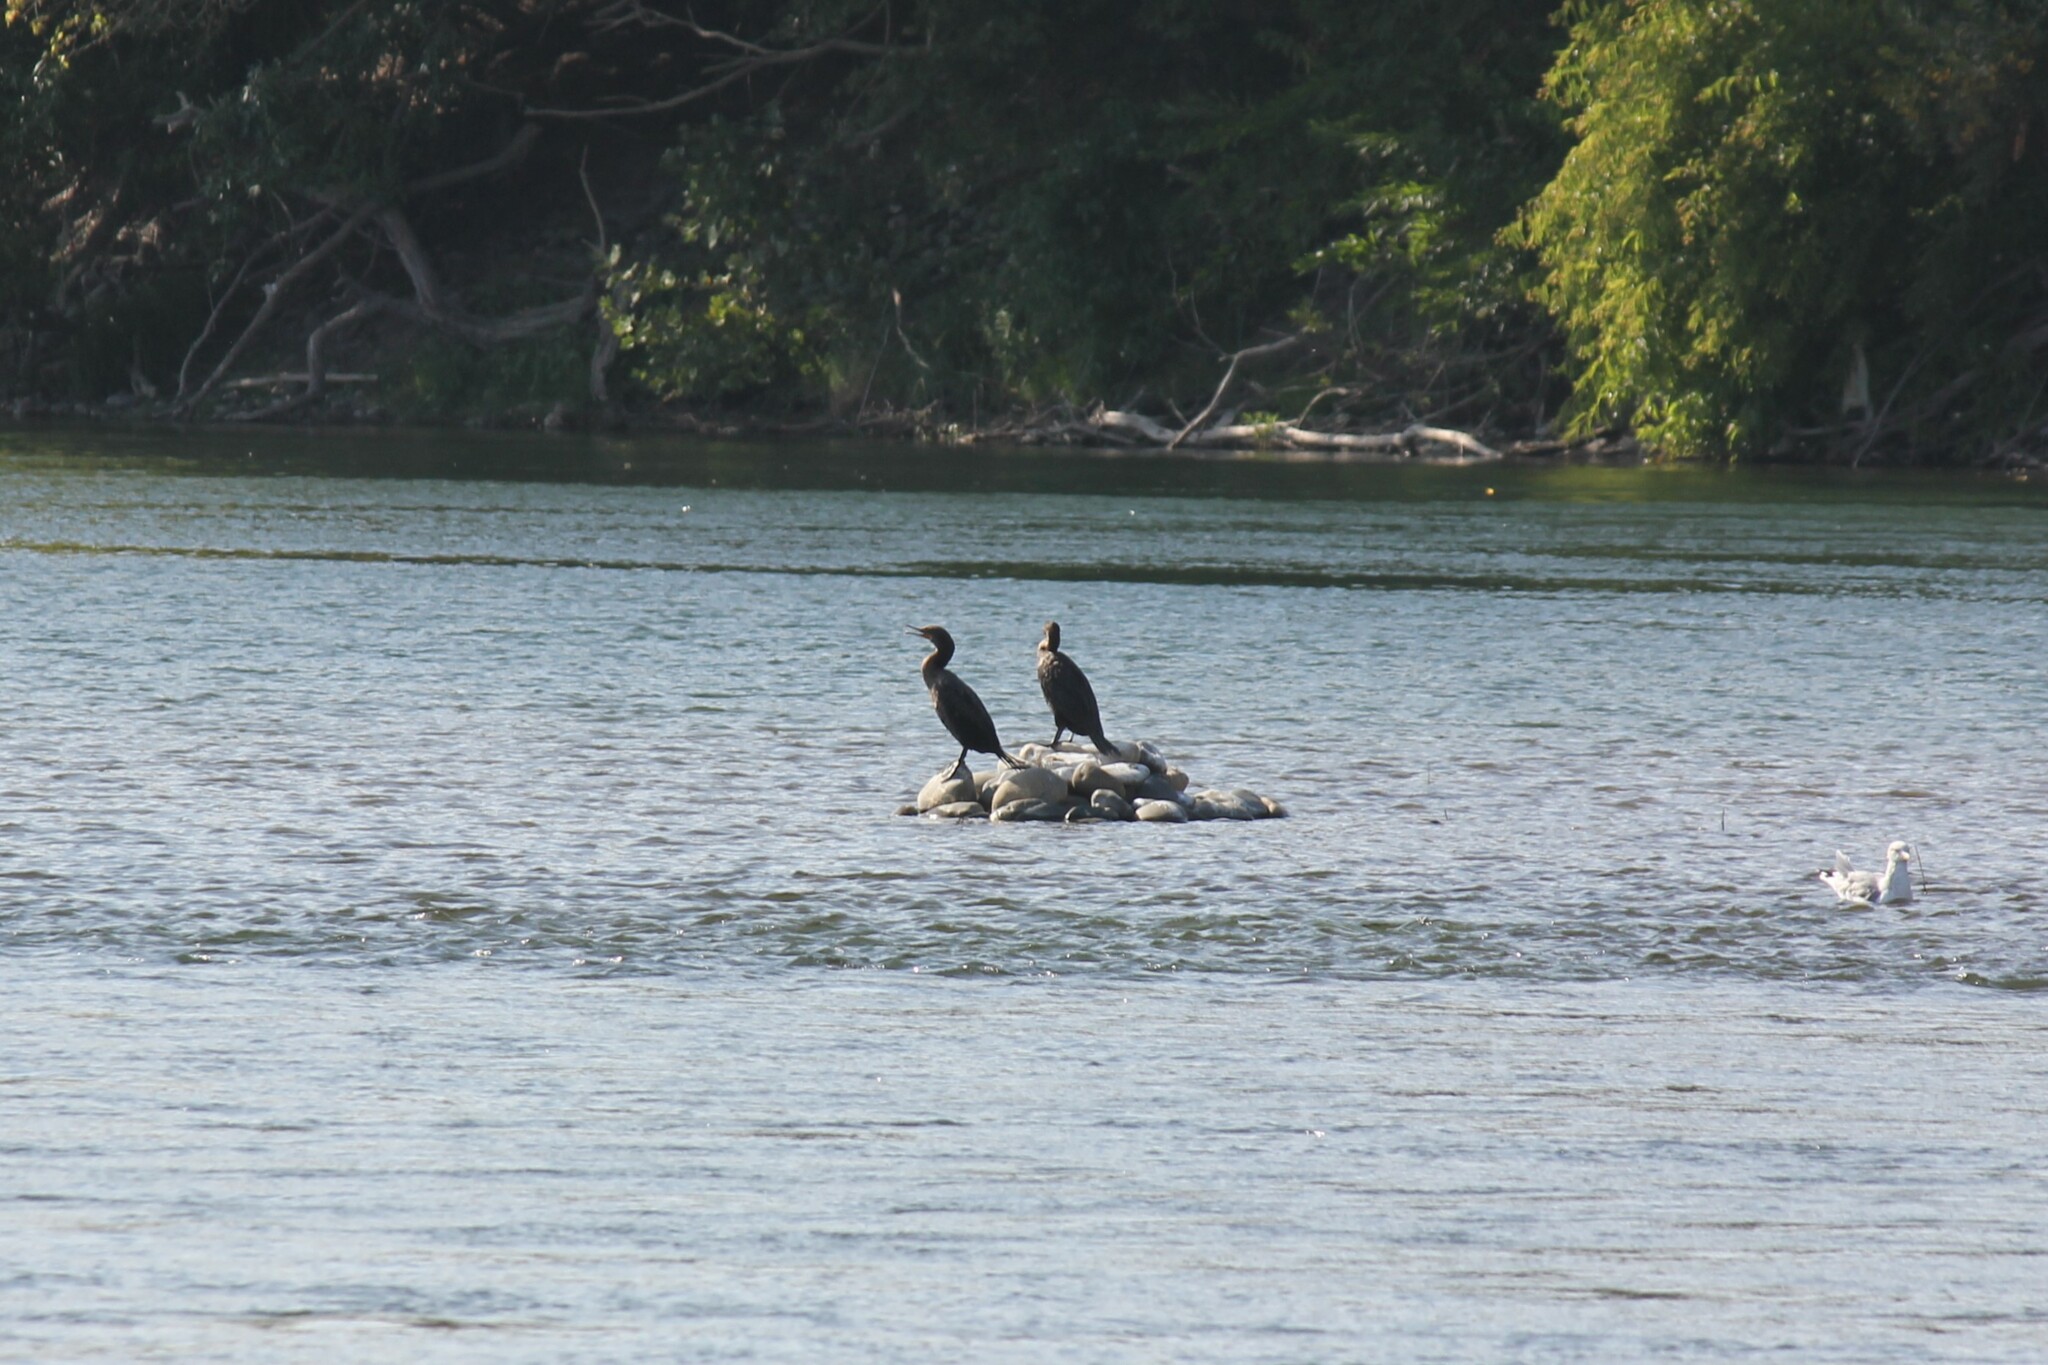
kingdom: Animalia
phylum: Chordata
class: Aves
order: Suliformes
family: Phalacrocoracidae
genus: Phalacrocorax
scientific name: Phalacrocorax auritus
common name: Double-crested cormorant
